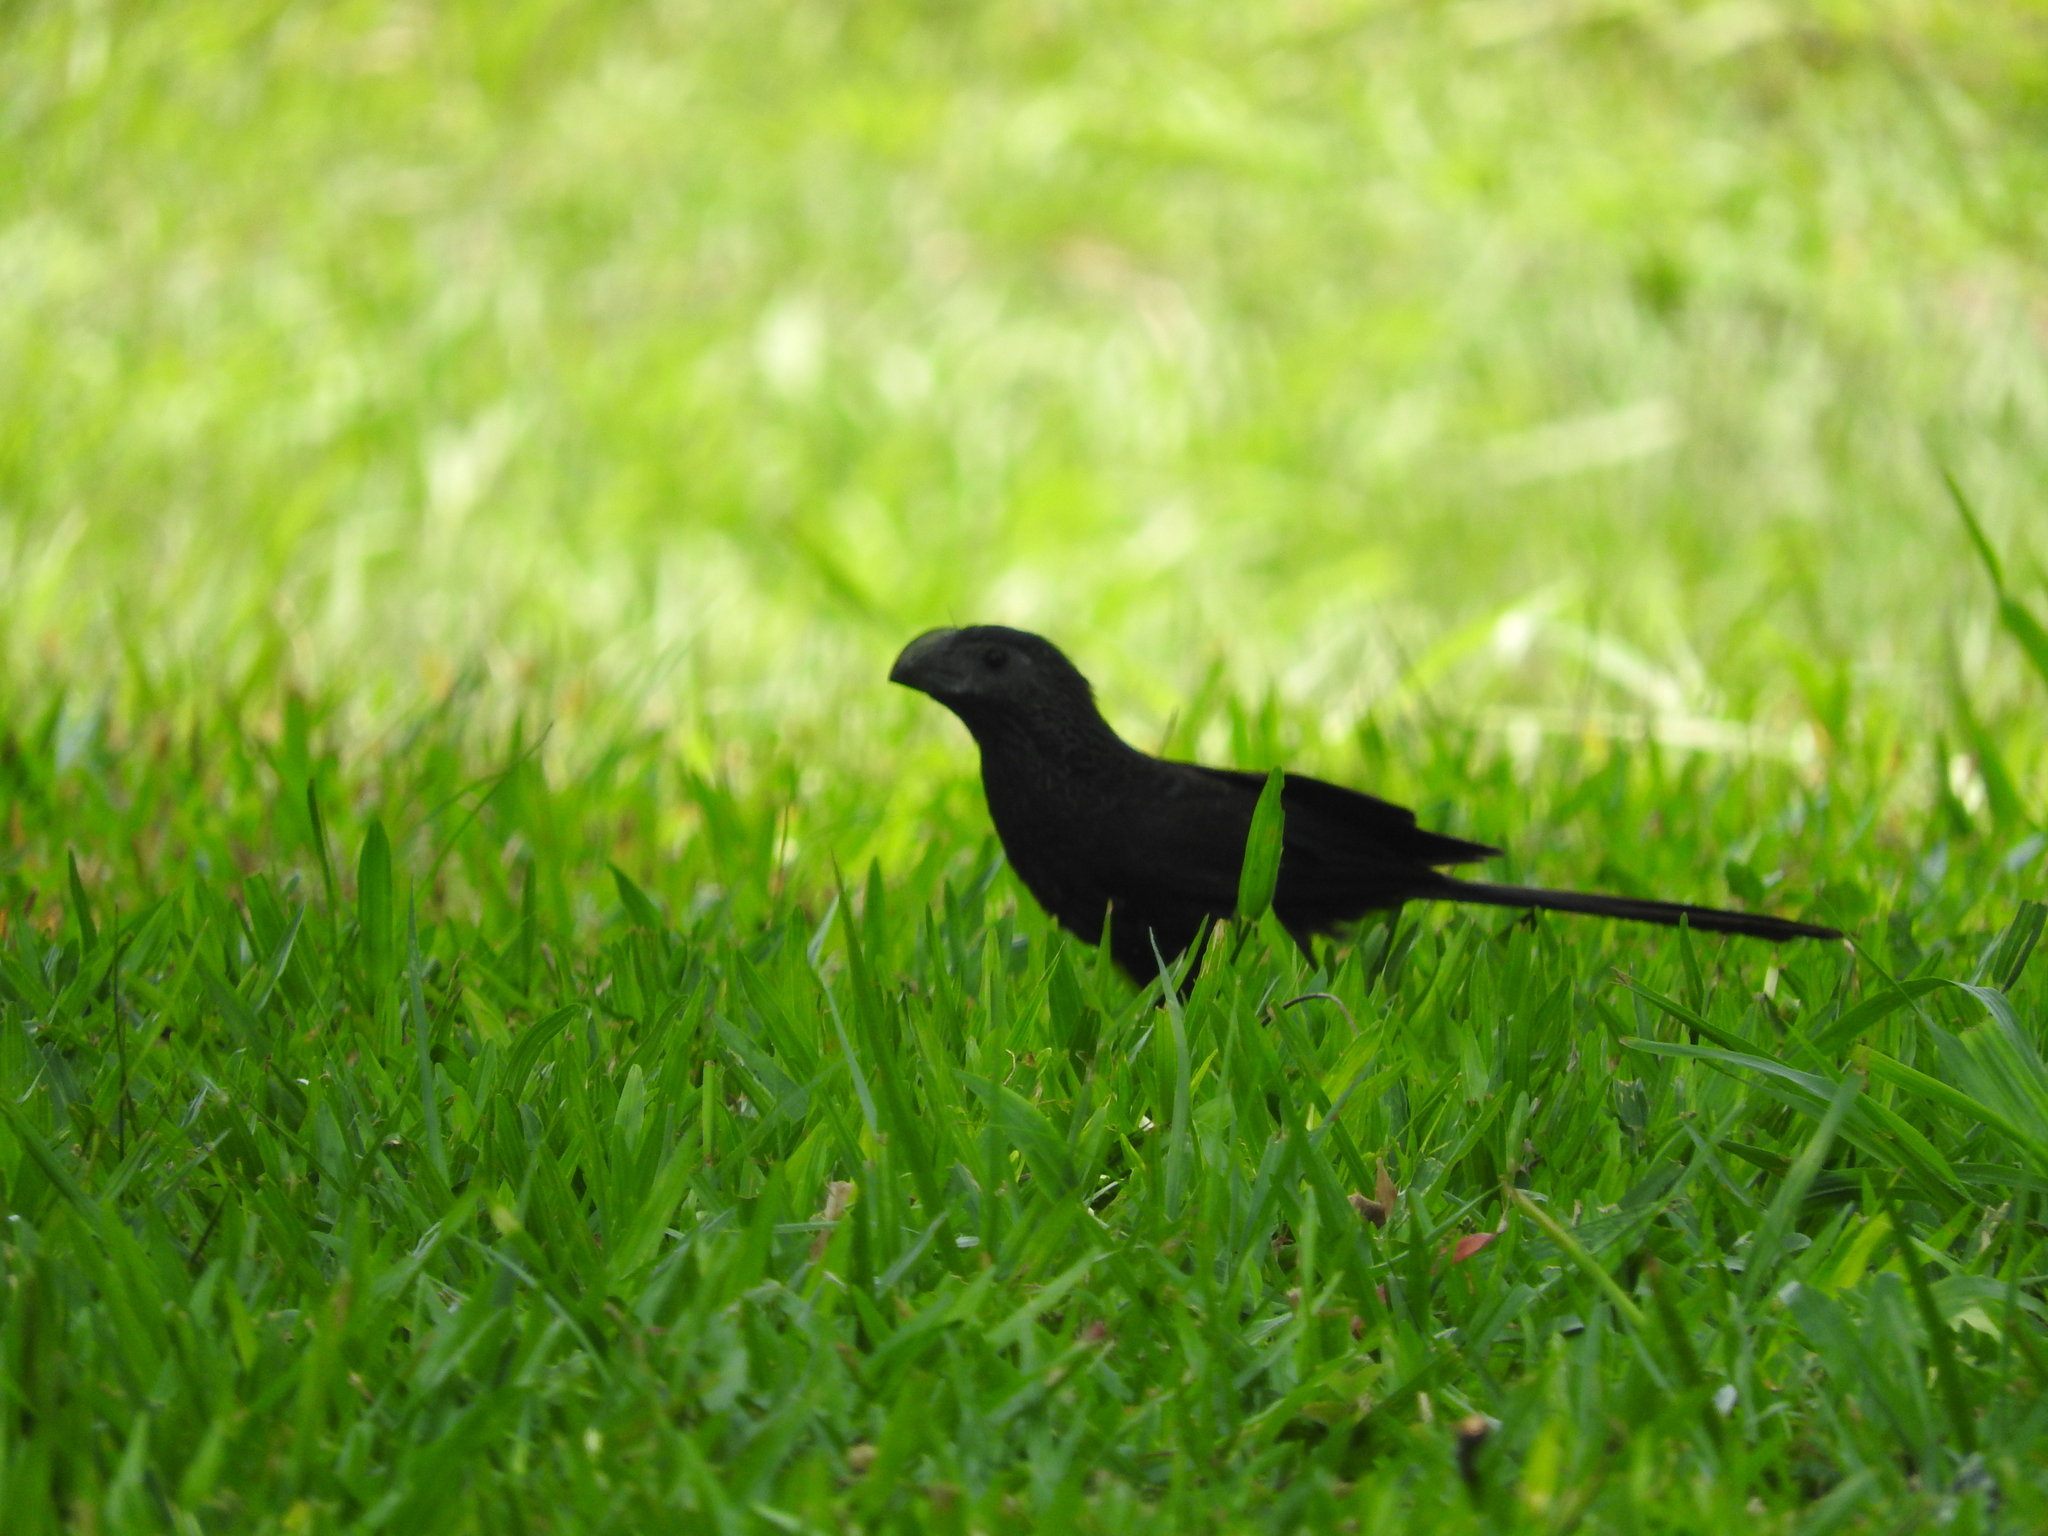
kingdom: Animalia
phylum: Chordata
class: Aves
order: Cuculiformes
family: Cuculidae
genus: Crotophaga
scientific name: Crotophaga sulcirostris
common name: Groove-billed ani
